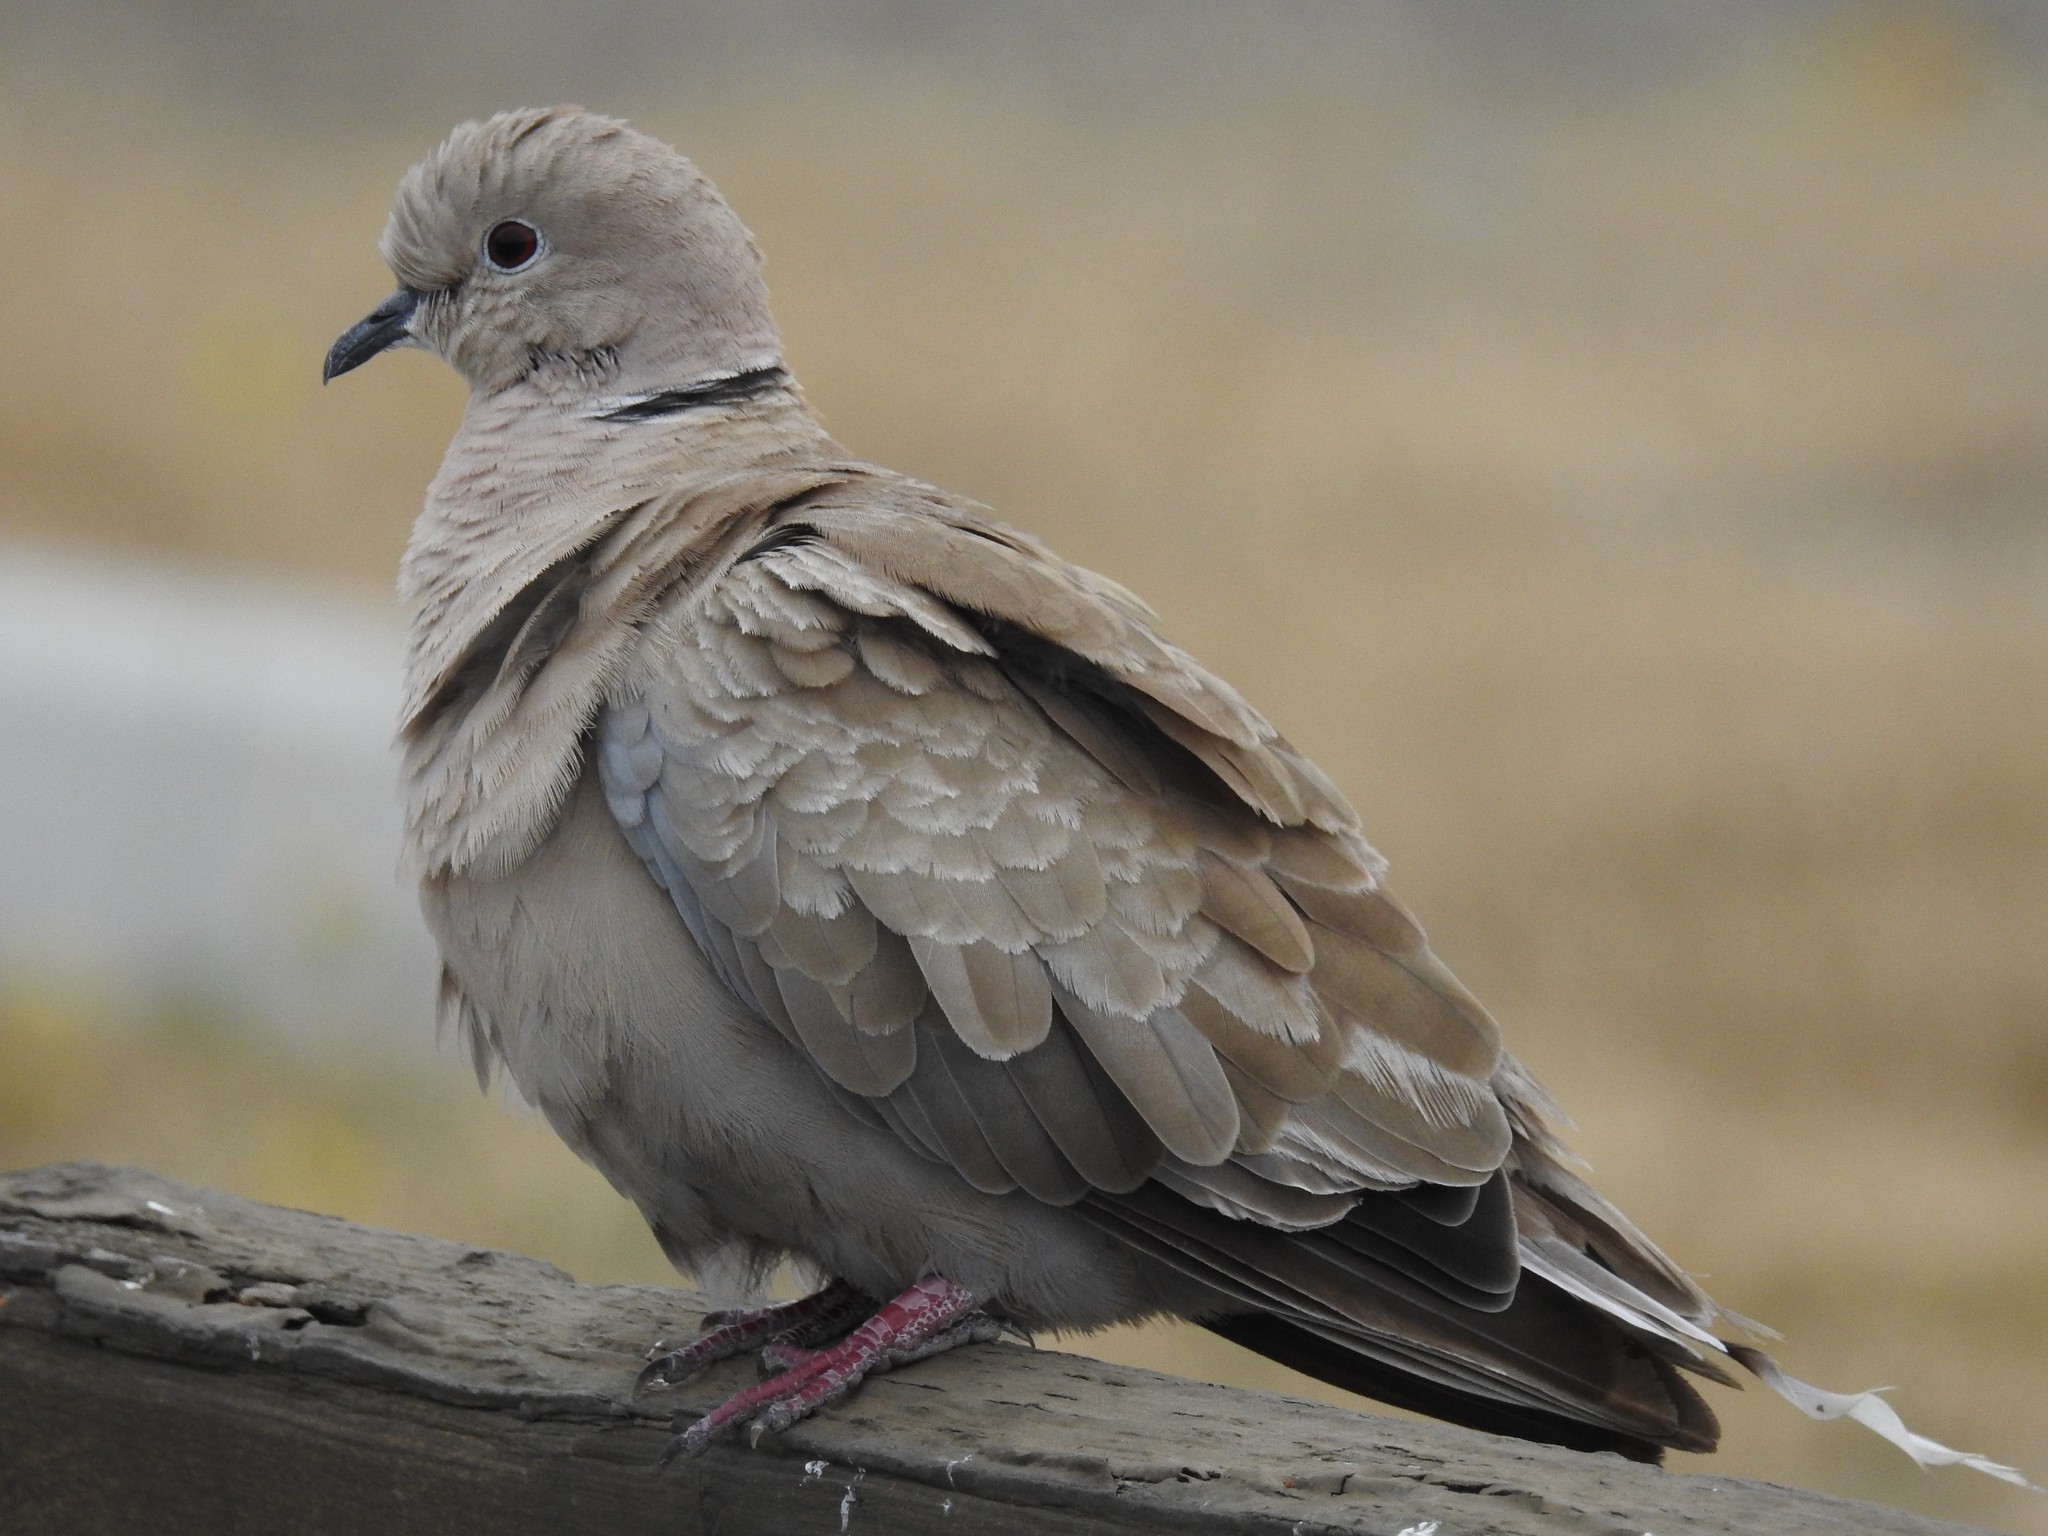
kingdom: Animalia
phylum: Chordata
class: Aves
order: Columbiformes
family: Columbidae
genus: Streptopelia
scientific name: Streptopelia decaocto
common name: Eurasian collared dove
